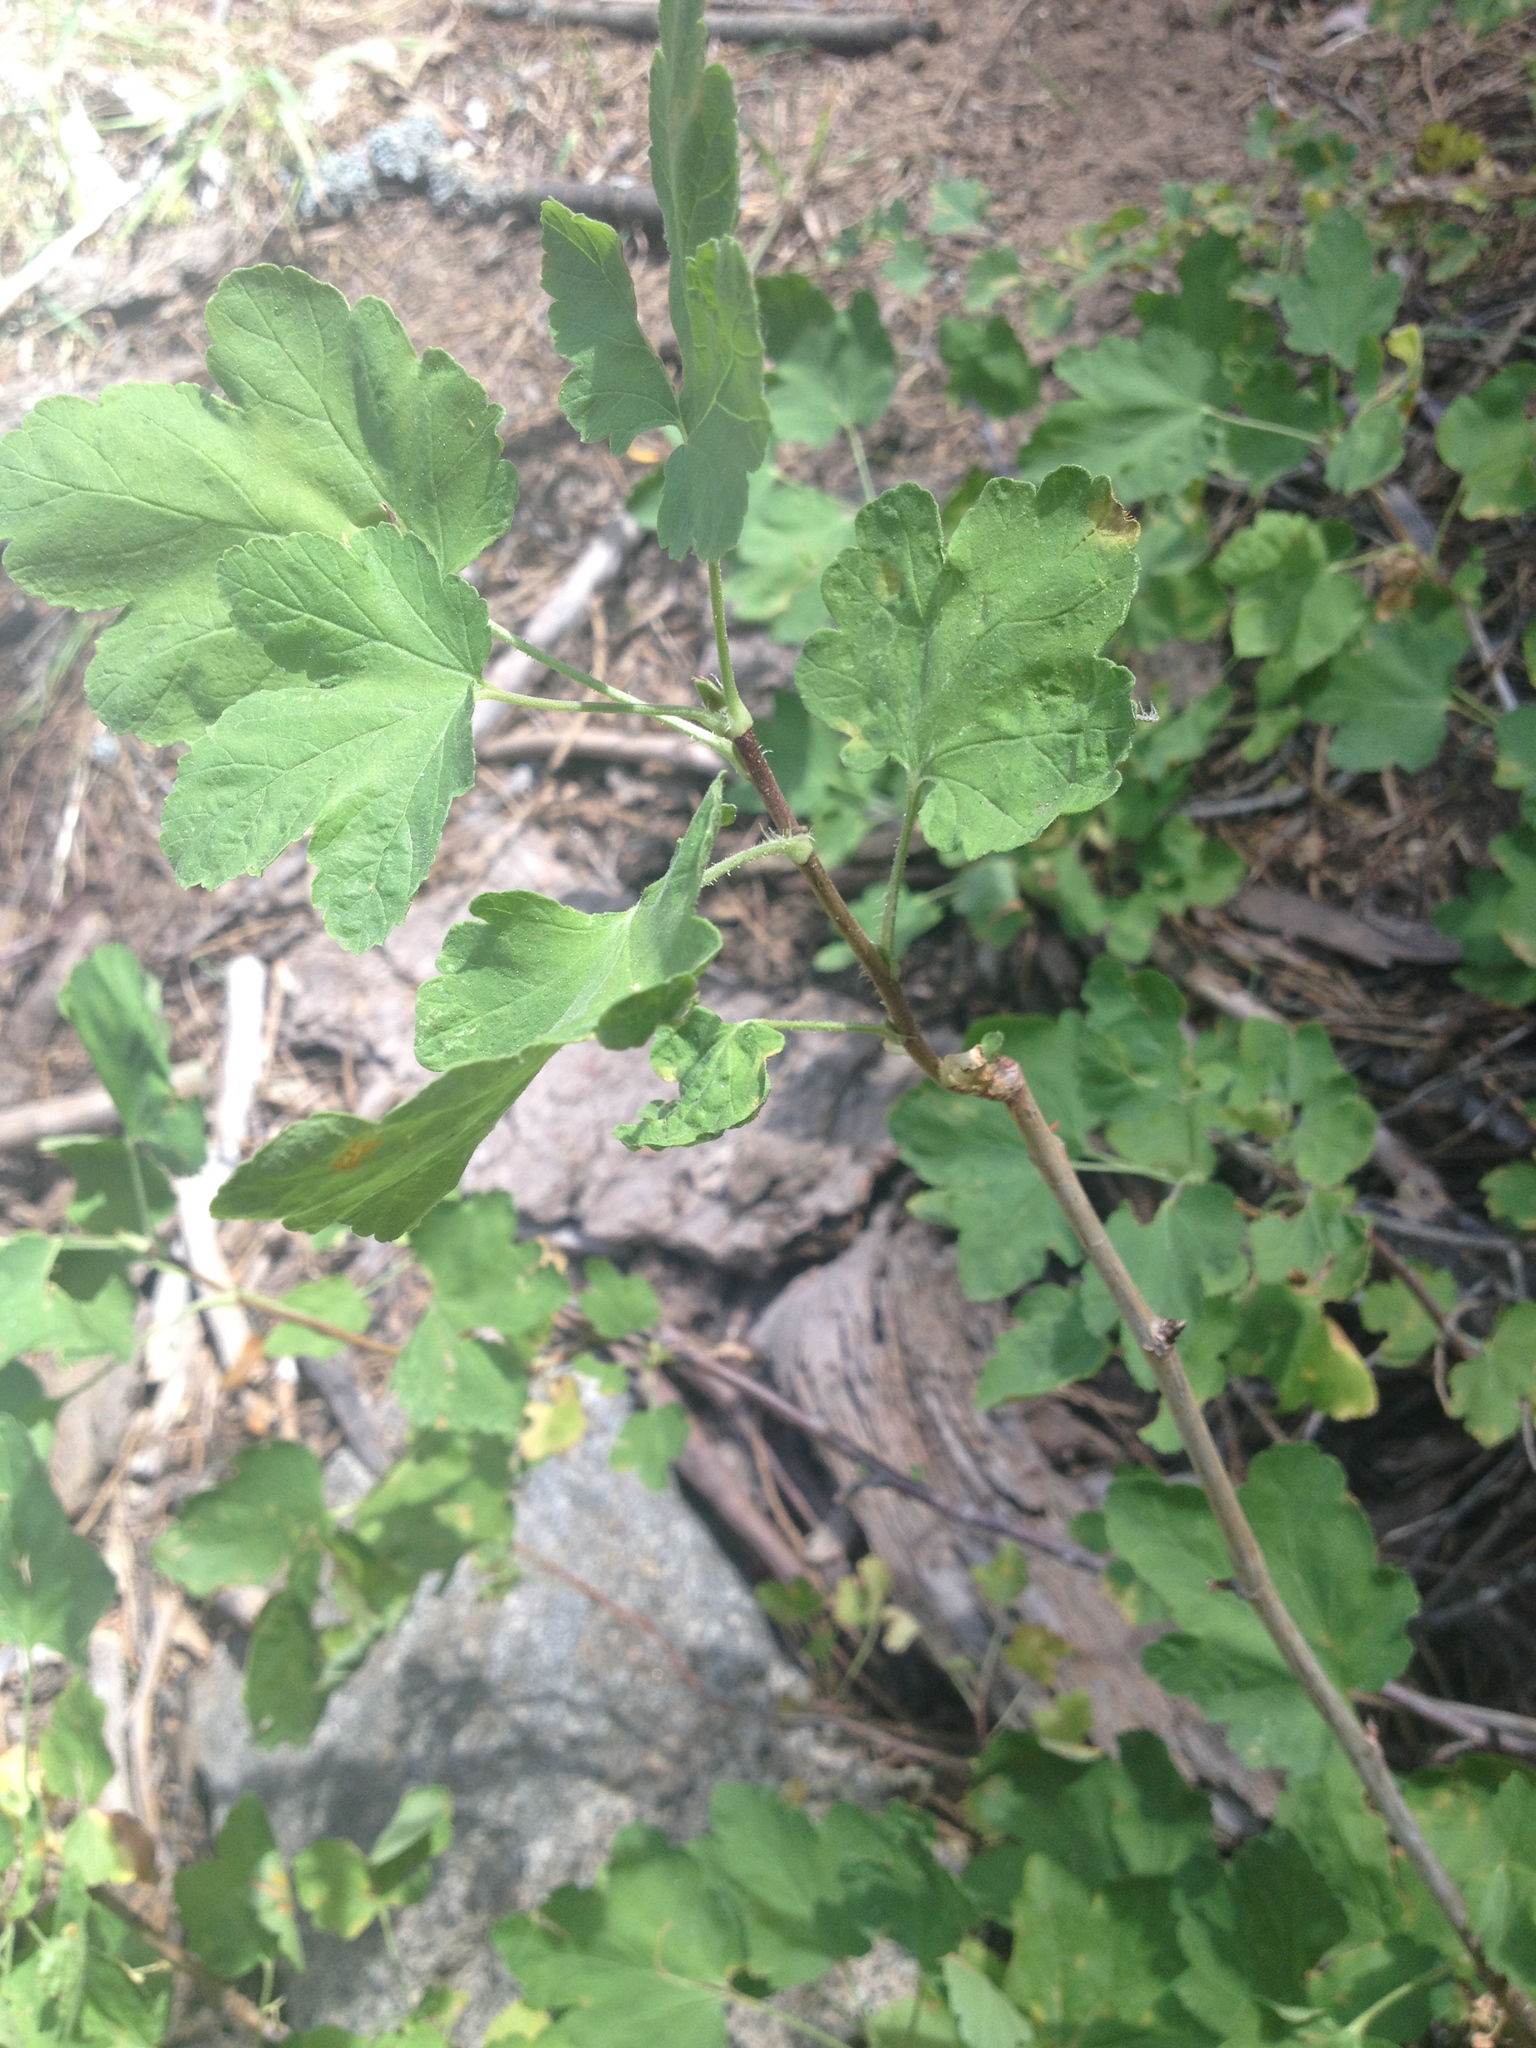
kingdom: Plantae
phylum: Tracheophyta
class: Magnoliopsida
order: Saxifragales
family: Grossulariaceae
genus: Ribes
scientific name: Ribes nevadense
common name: Mountain pink currant
